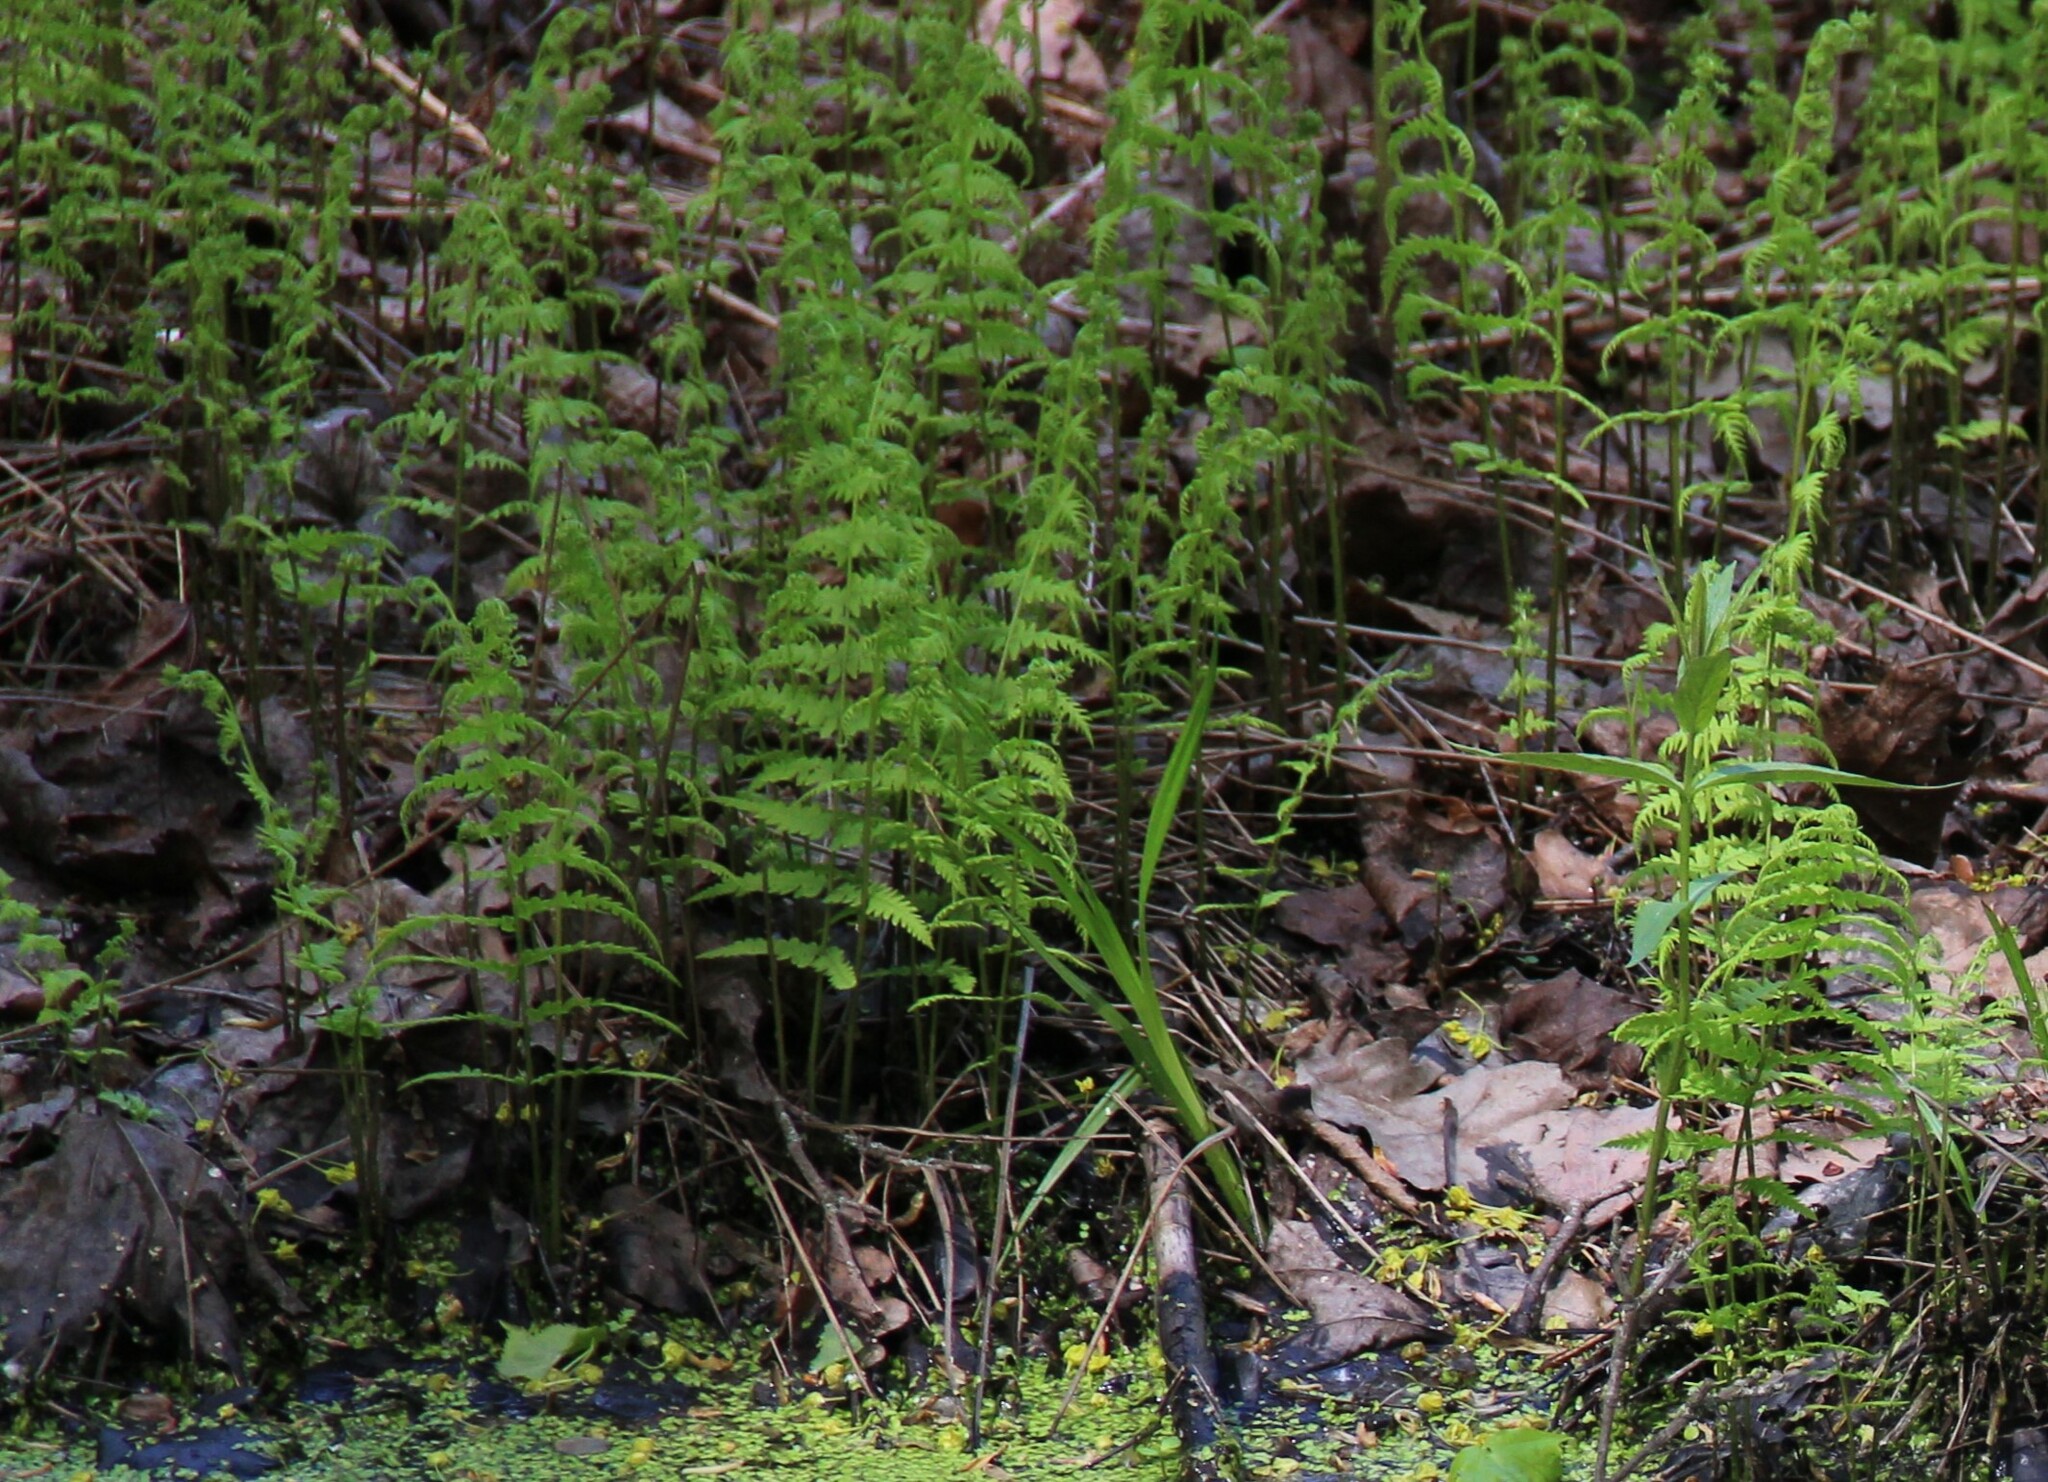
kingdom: Plantae
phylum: Tracheophyta
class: Polypodiopsida
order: Polypodiales
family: Thelypteridaceae
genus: Thelypteris
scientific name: Thelypteris palustris
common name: Marsh fern
